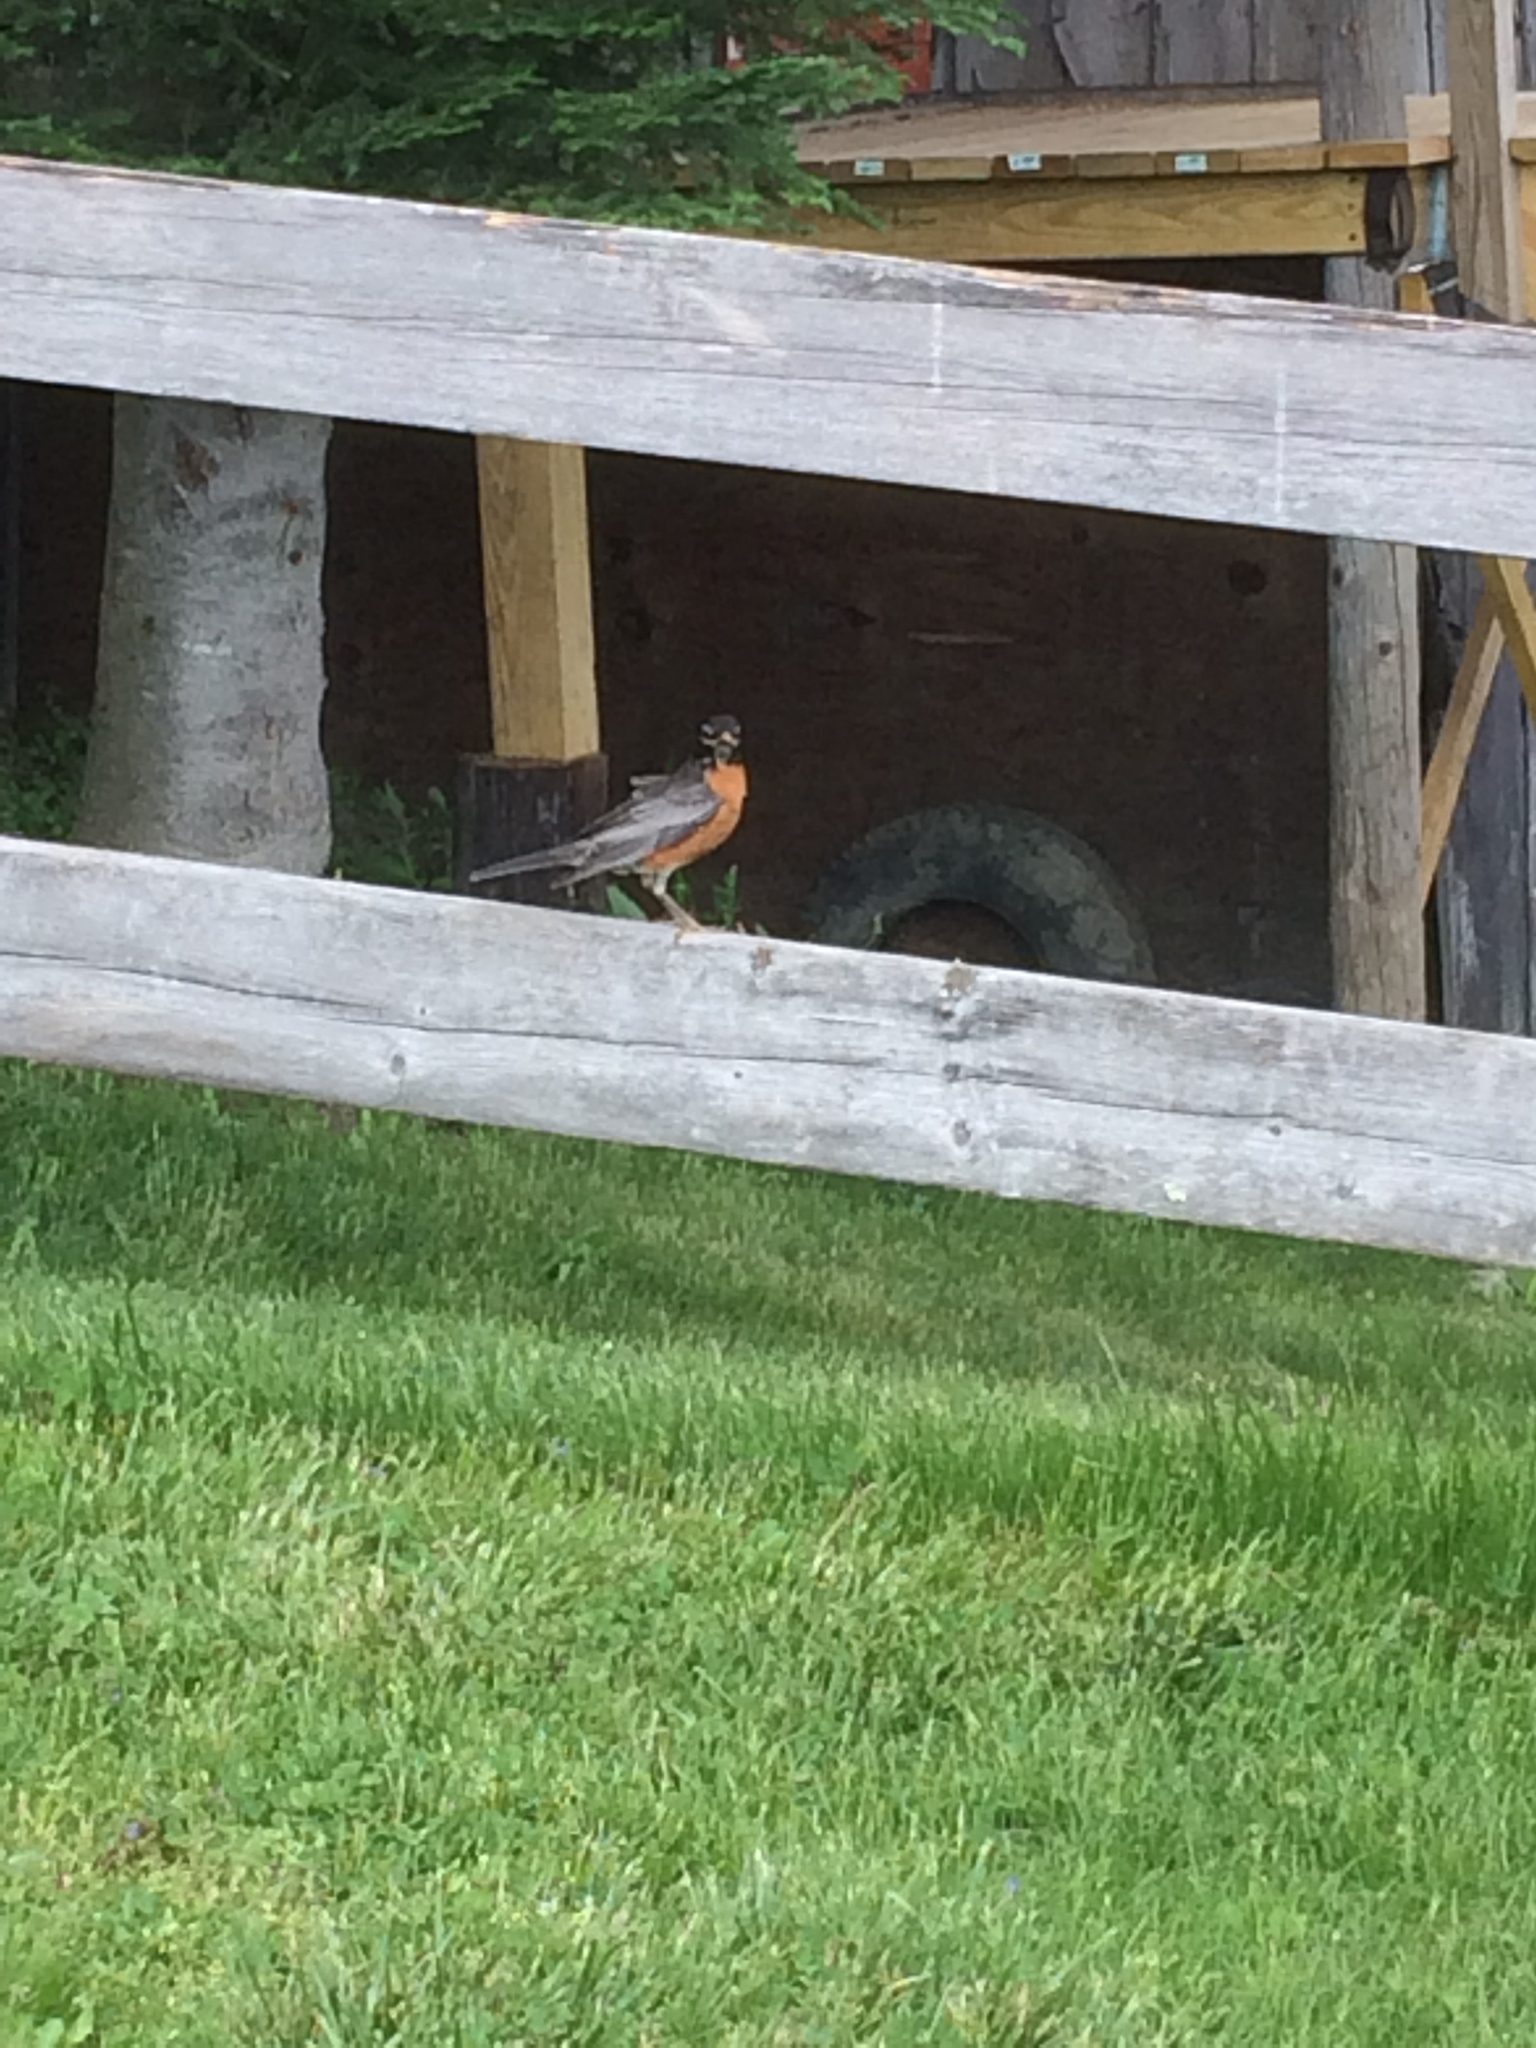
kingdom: Animalia
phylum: Chordata
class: Aves
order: Passeriformes
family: Turdidae
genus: Turdus
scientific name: Turdus migratorius
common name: American robin
